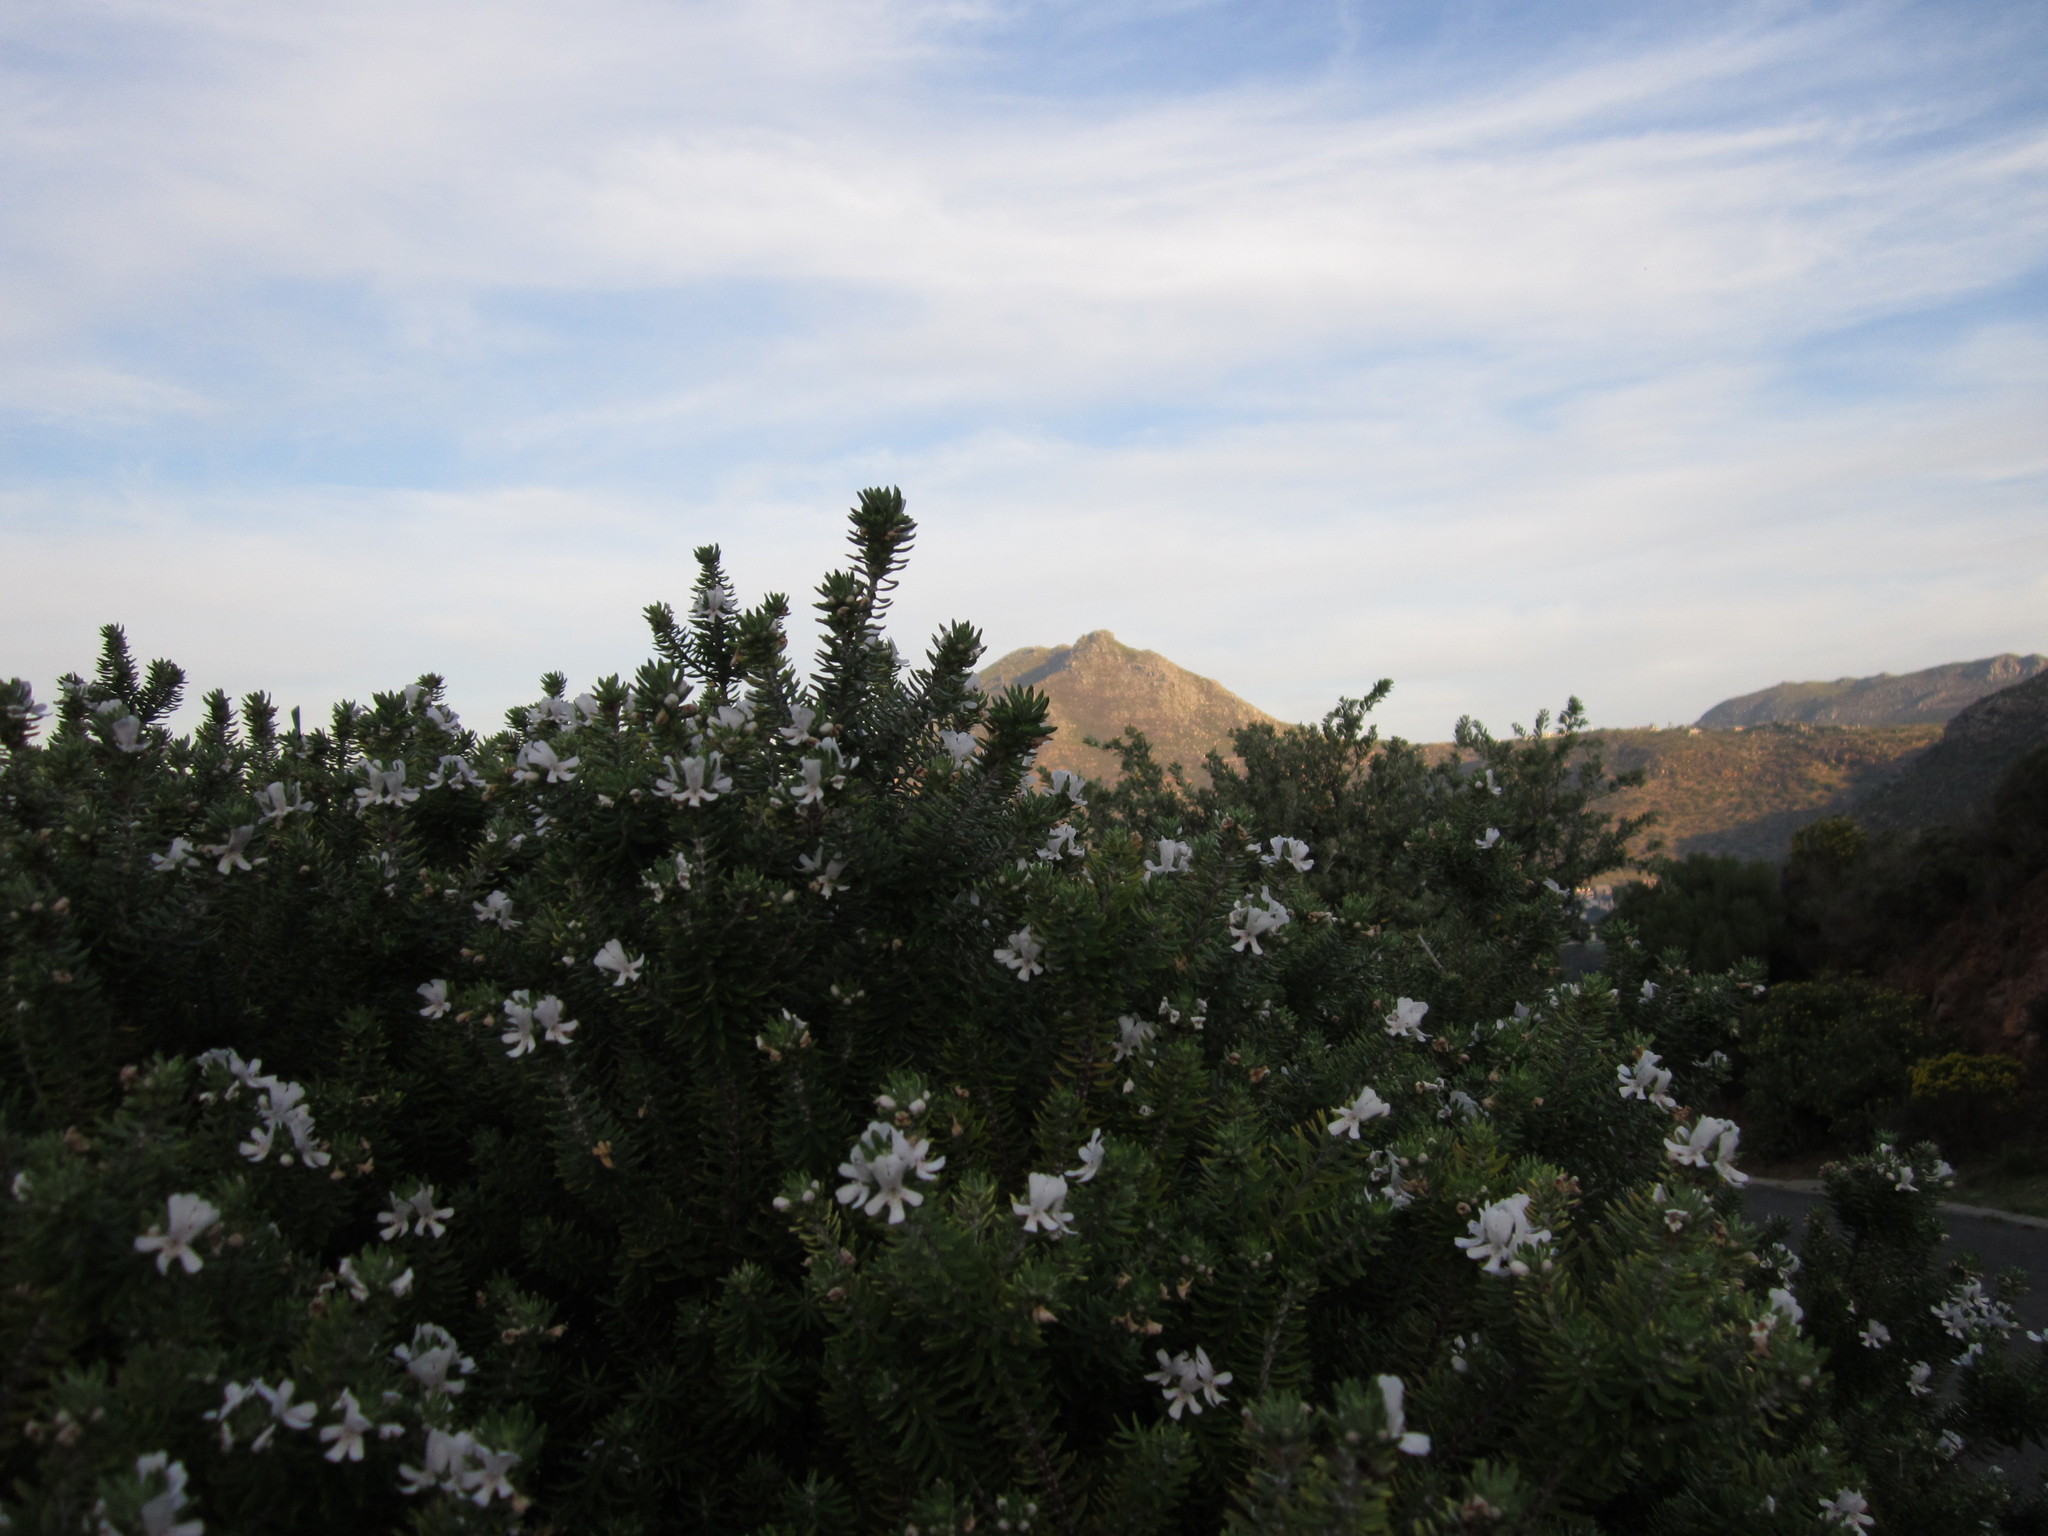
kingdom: Plantae
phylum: Tracheophyta
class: Magnoliopsida
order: Lamiales
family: Lamiaceae
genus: Westringia
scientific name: Westringia fruticosa
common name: Coastal-rosemary
